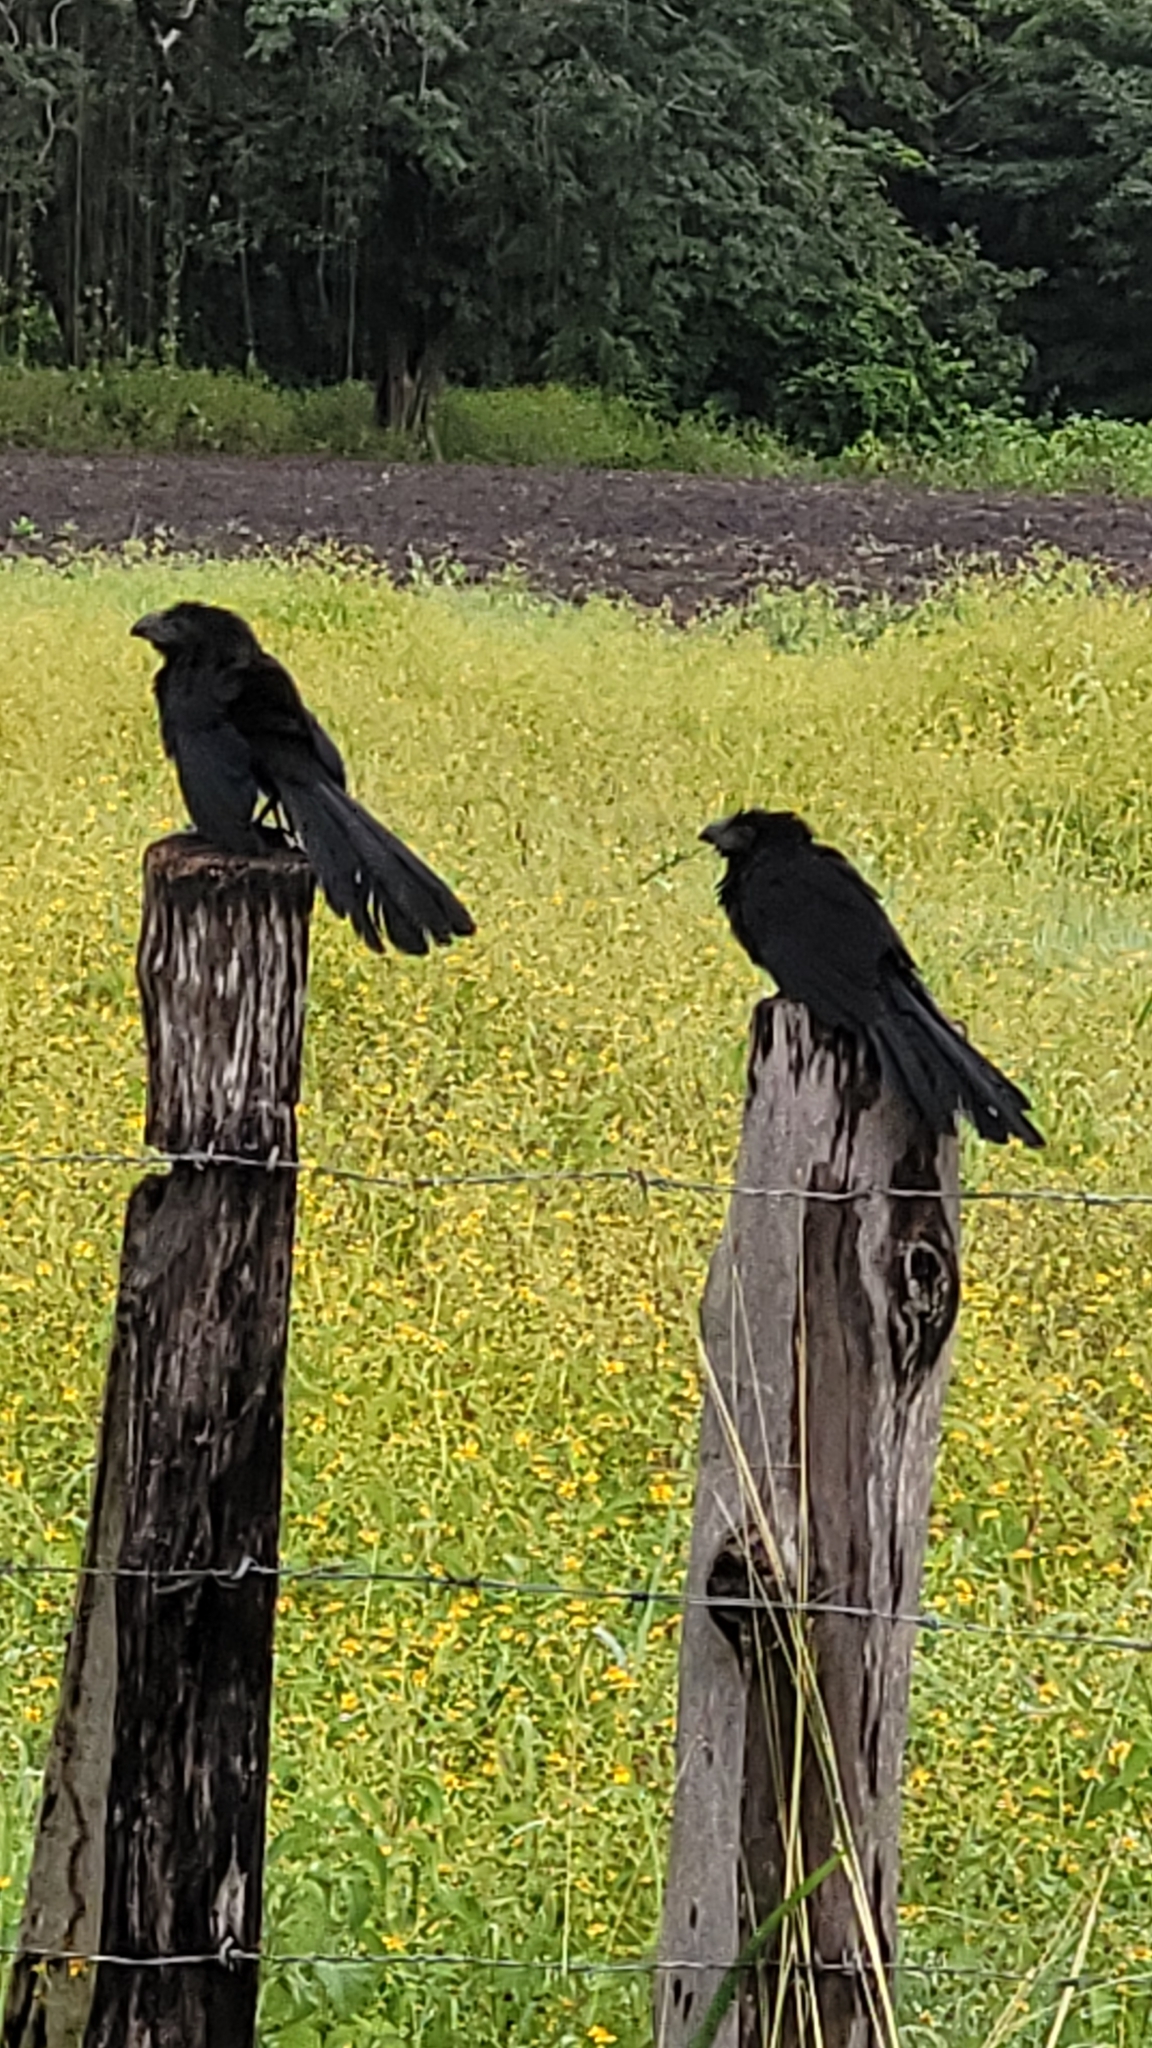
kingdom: Animalia
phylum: Chordata
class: Aves
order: Cuculiformes
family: Cuculidae
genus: Crotophaga
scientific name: Crotophaga sulcirostris
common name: Groove-billed ani
